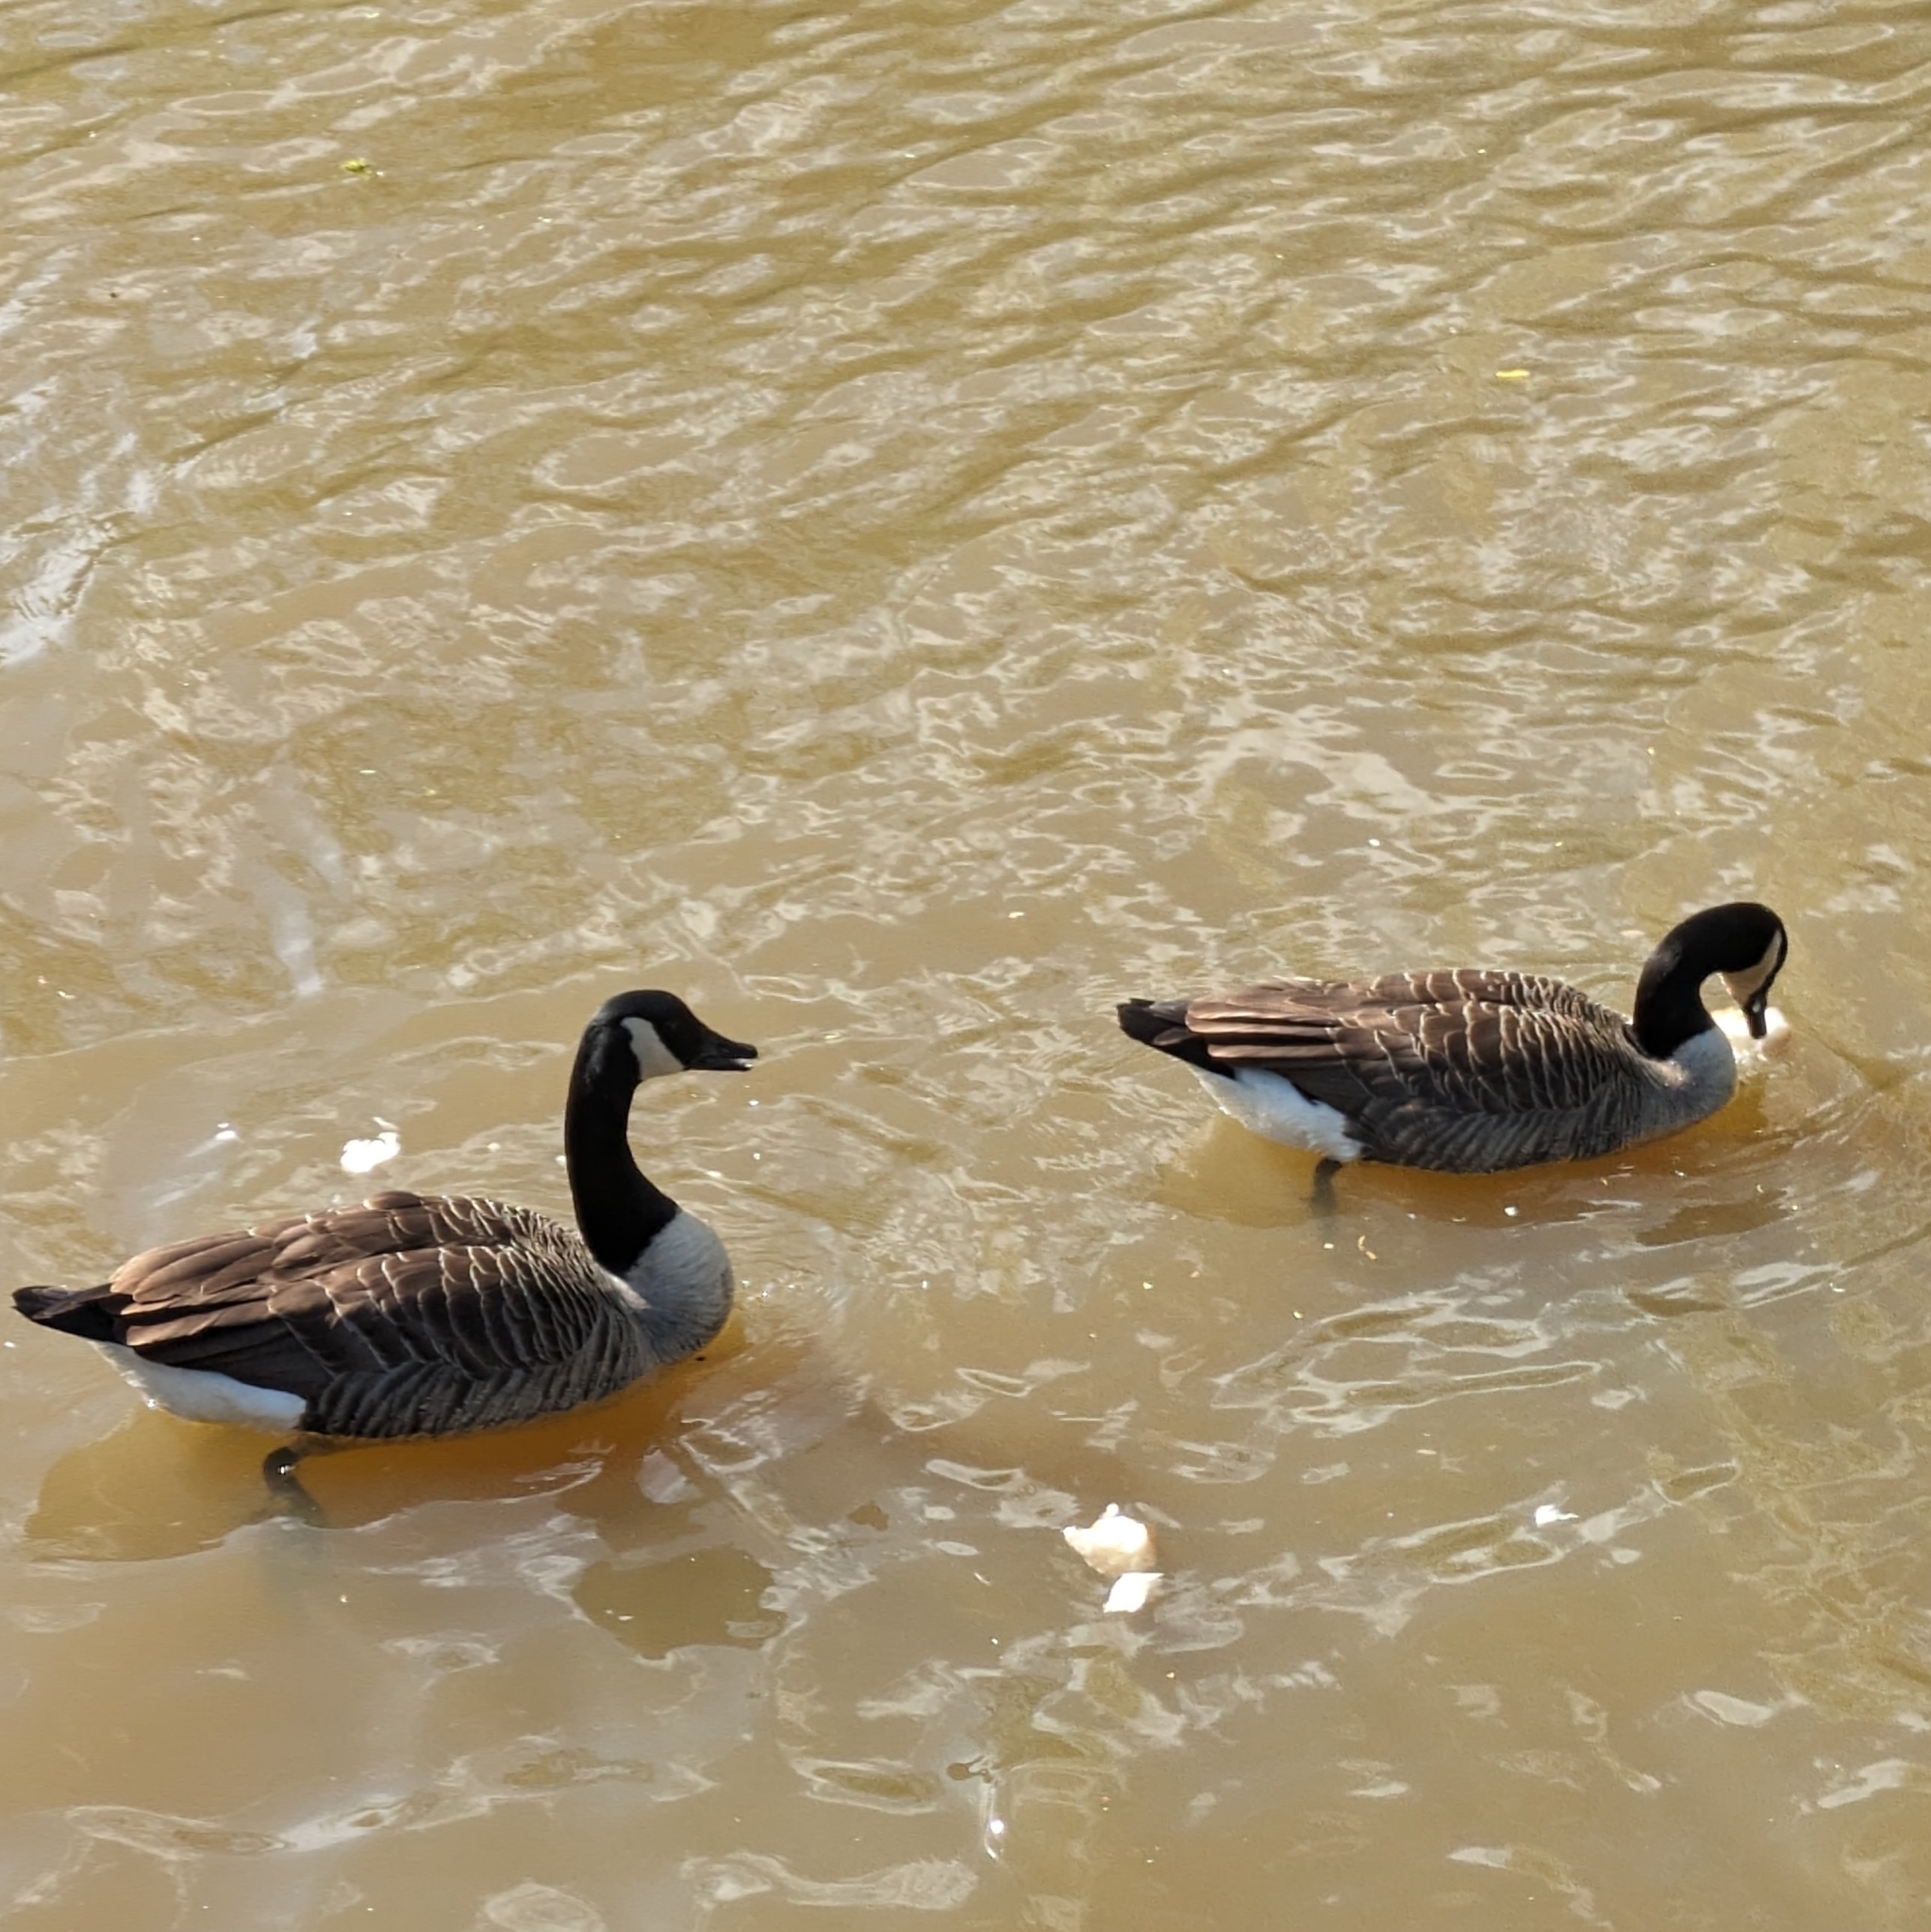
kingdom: Animalia
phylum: Chordata
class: Aves
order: Anseriformes
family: Anatidae
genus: Branta
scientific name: Branta canadensis
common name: Canada goose
